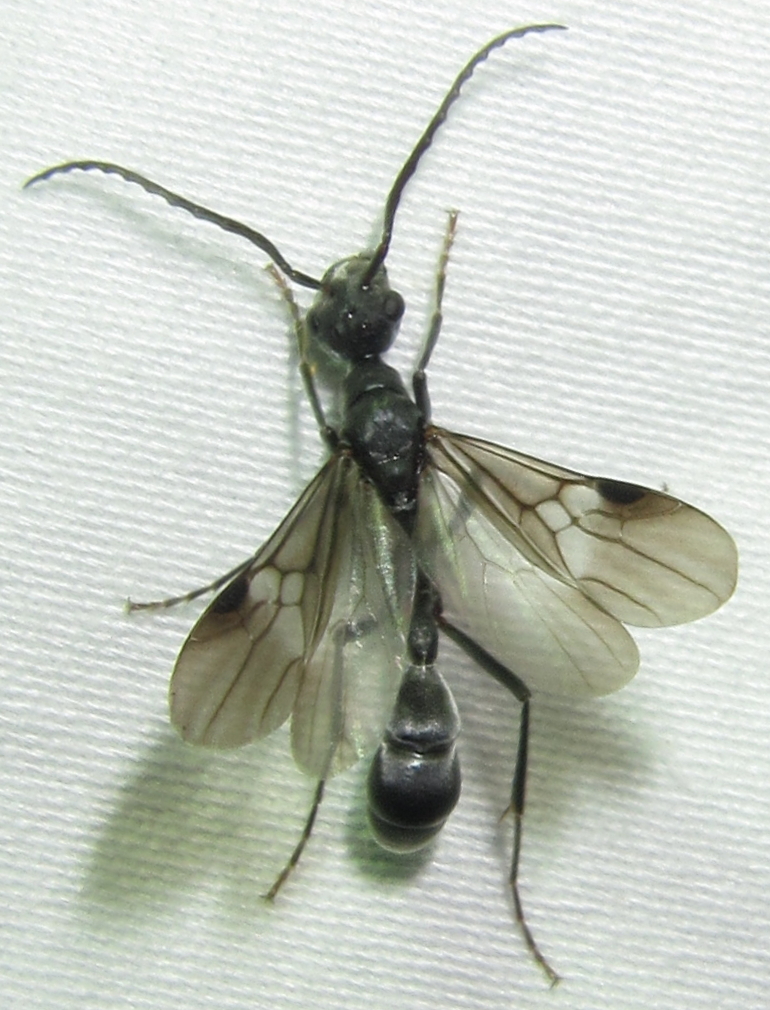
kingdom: Animalia
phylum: Arthropoda
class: Insecta
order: Hymenoptera
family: Formicidae
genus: Platythyrea
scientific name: Platythyrea lamellosa
